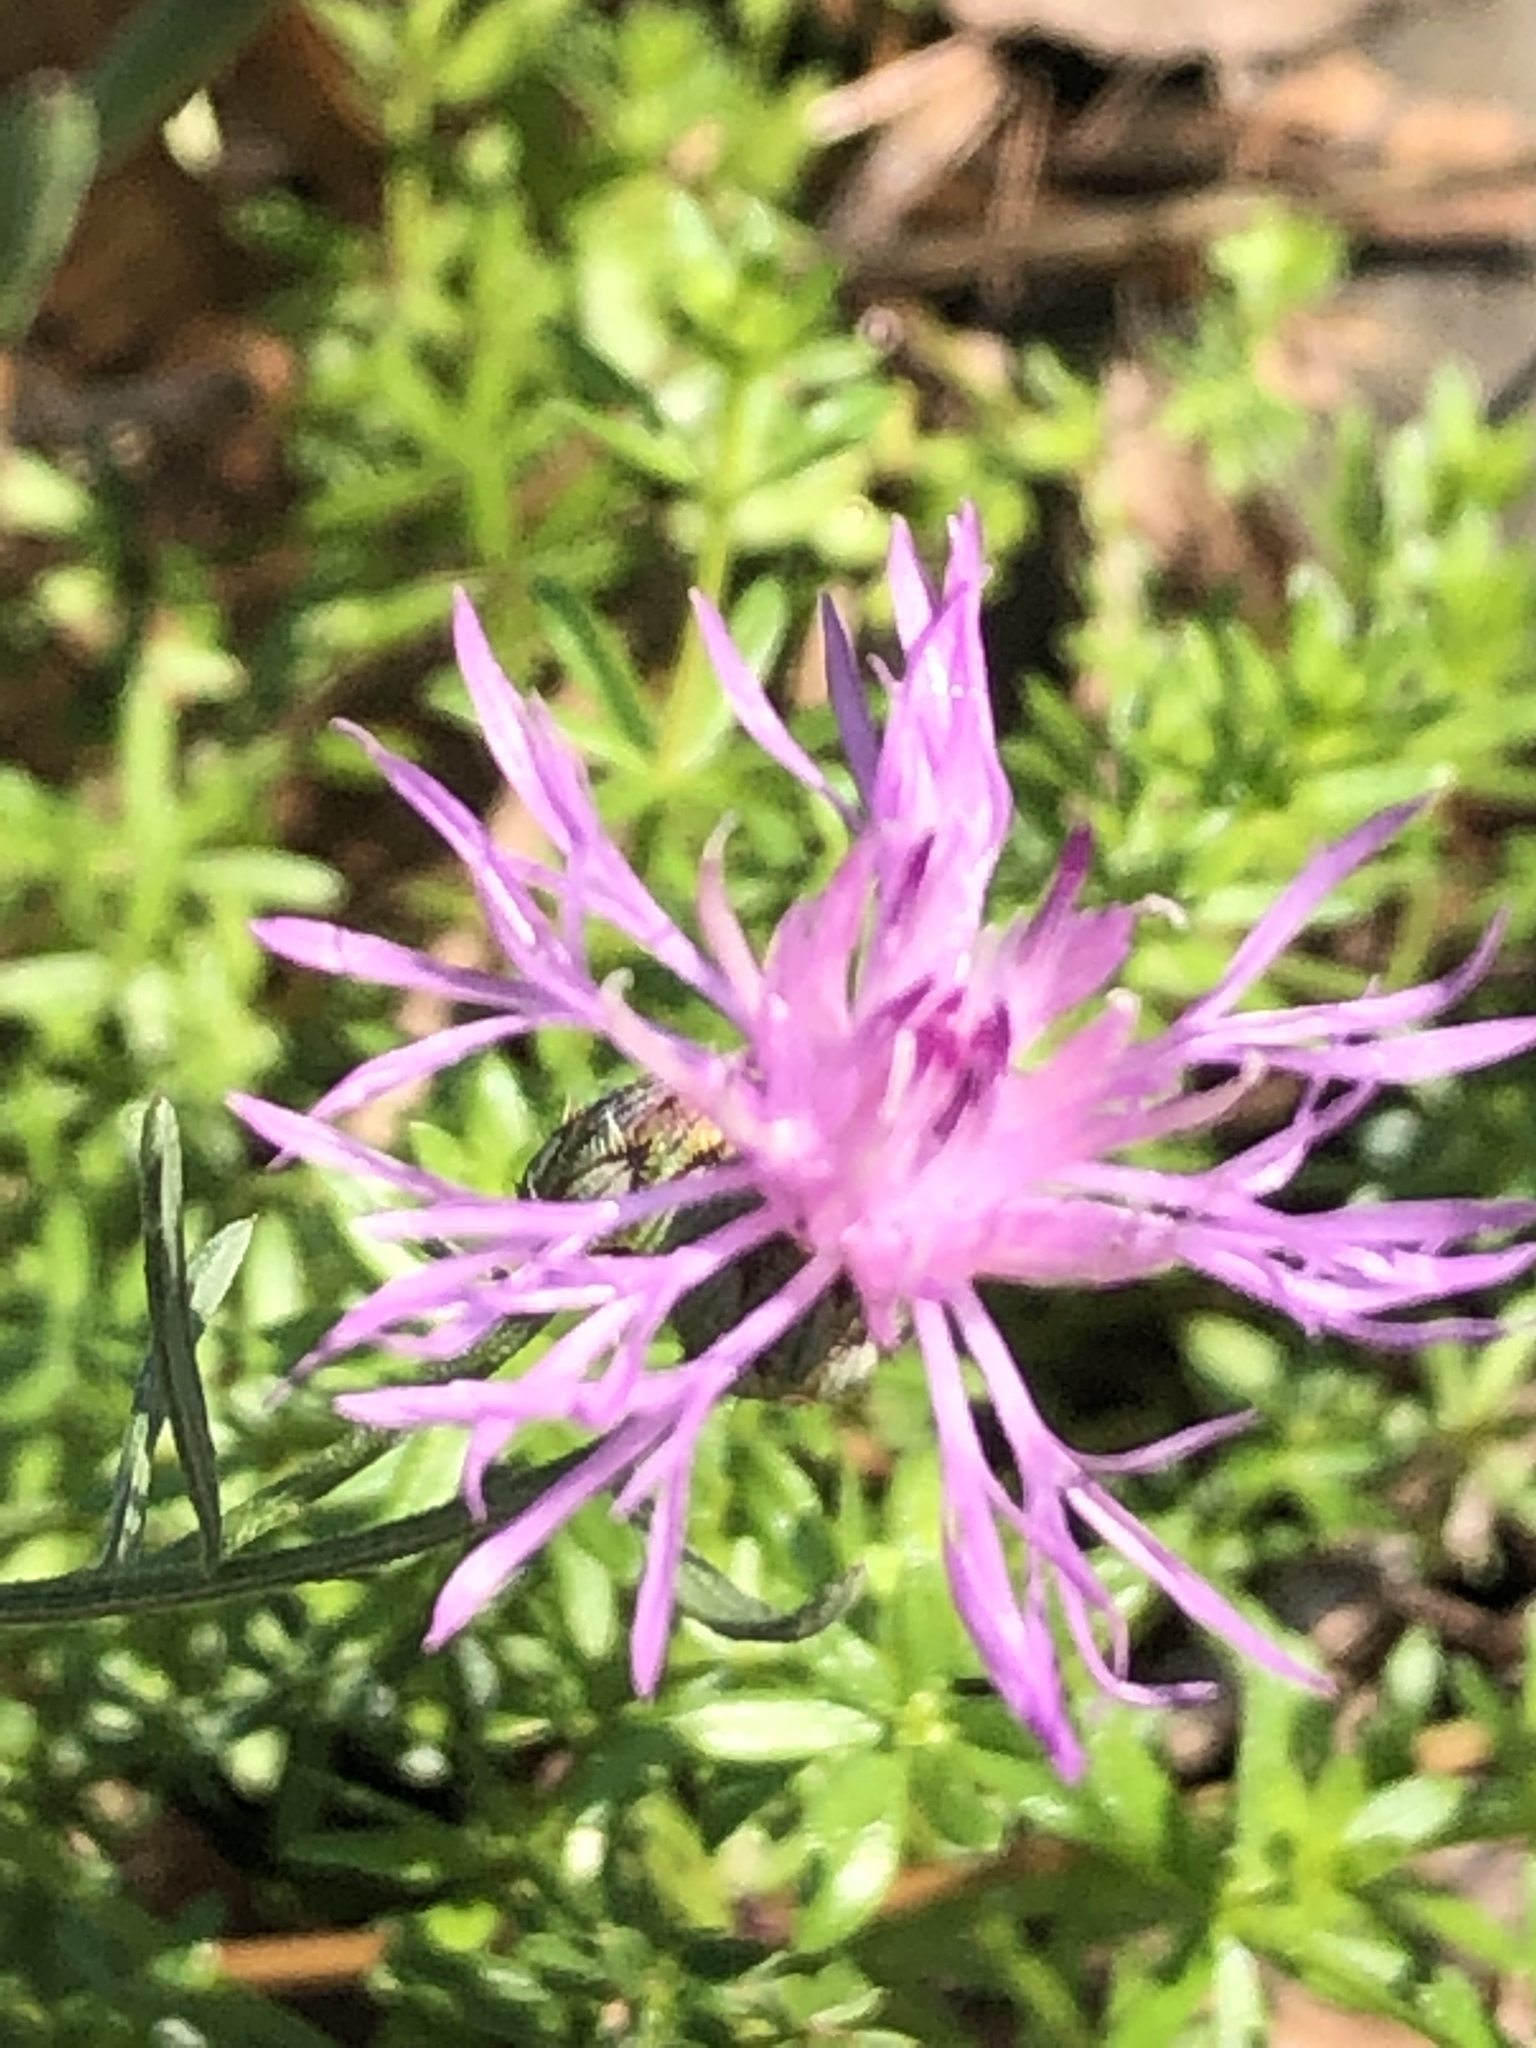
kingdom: Plantae
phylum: Tracheophyta
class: Magnoliopsida
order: Asterales
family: Asteraceae
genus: Centaurea
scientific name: Centaurea stoebe
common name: Spotted knapweed
